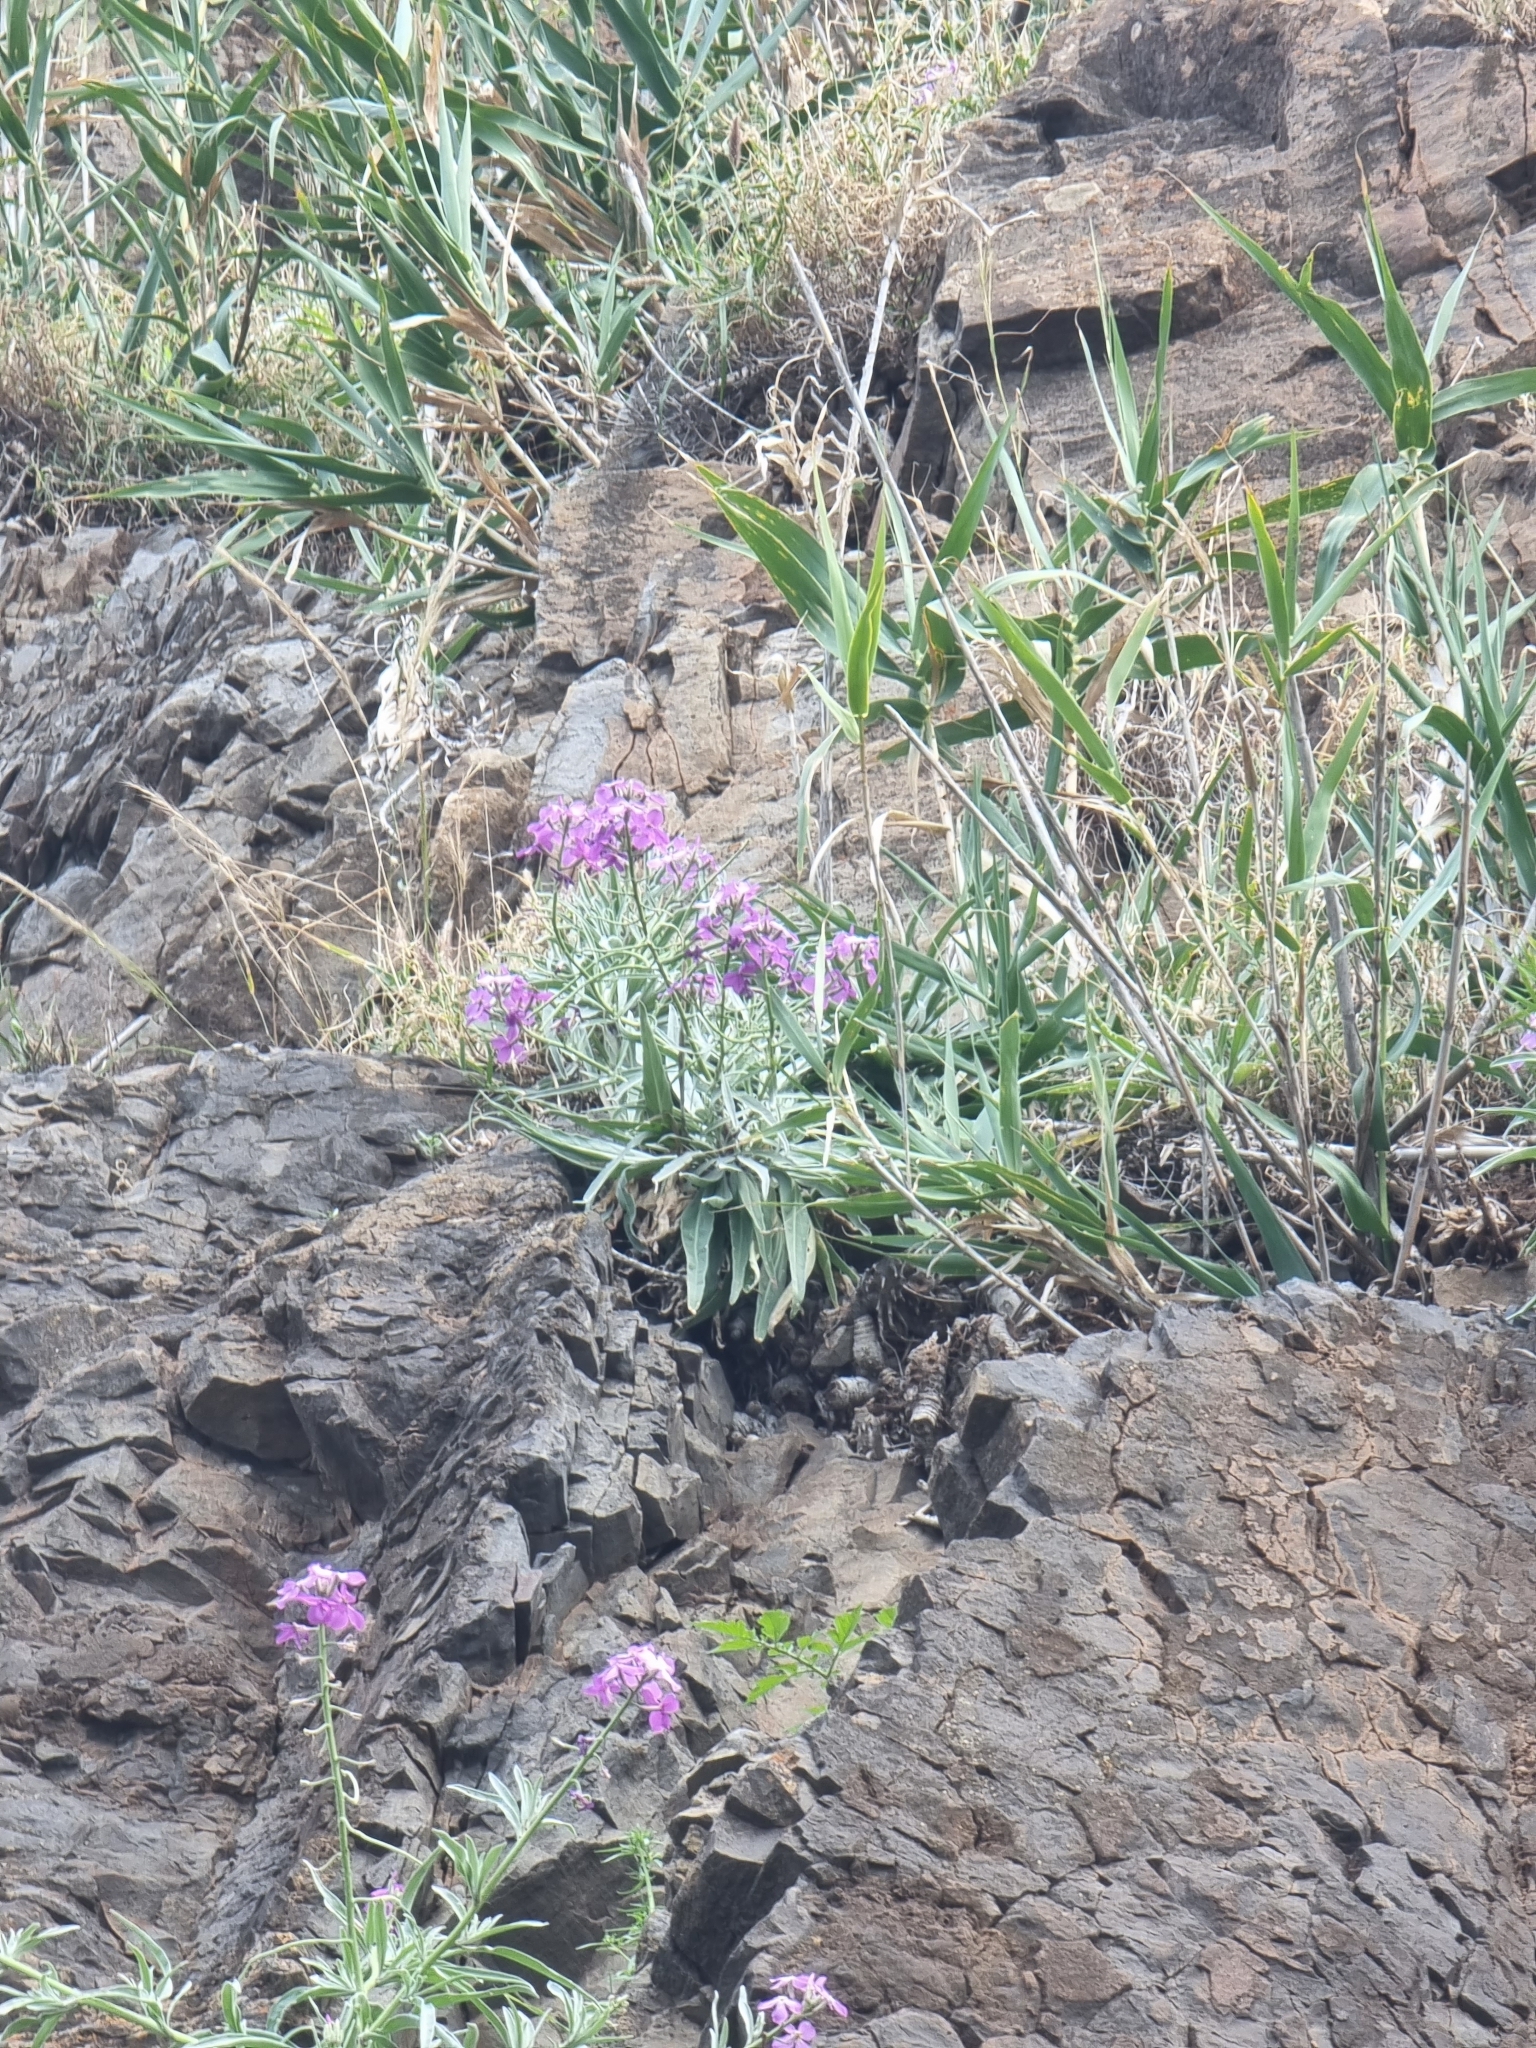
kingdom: Plantae
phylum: Tracheophyta
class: Magnoliopsida
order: Brassicales
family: Brassicaceae
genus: Matthiola
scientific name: Matthiola maderensis
